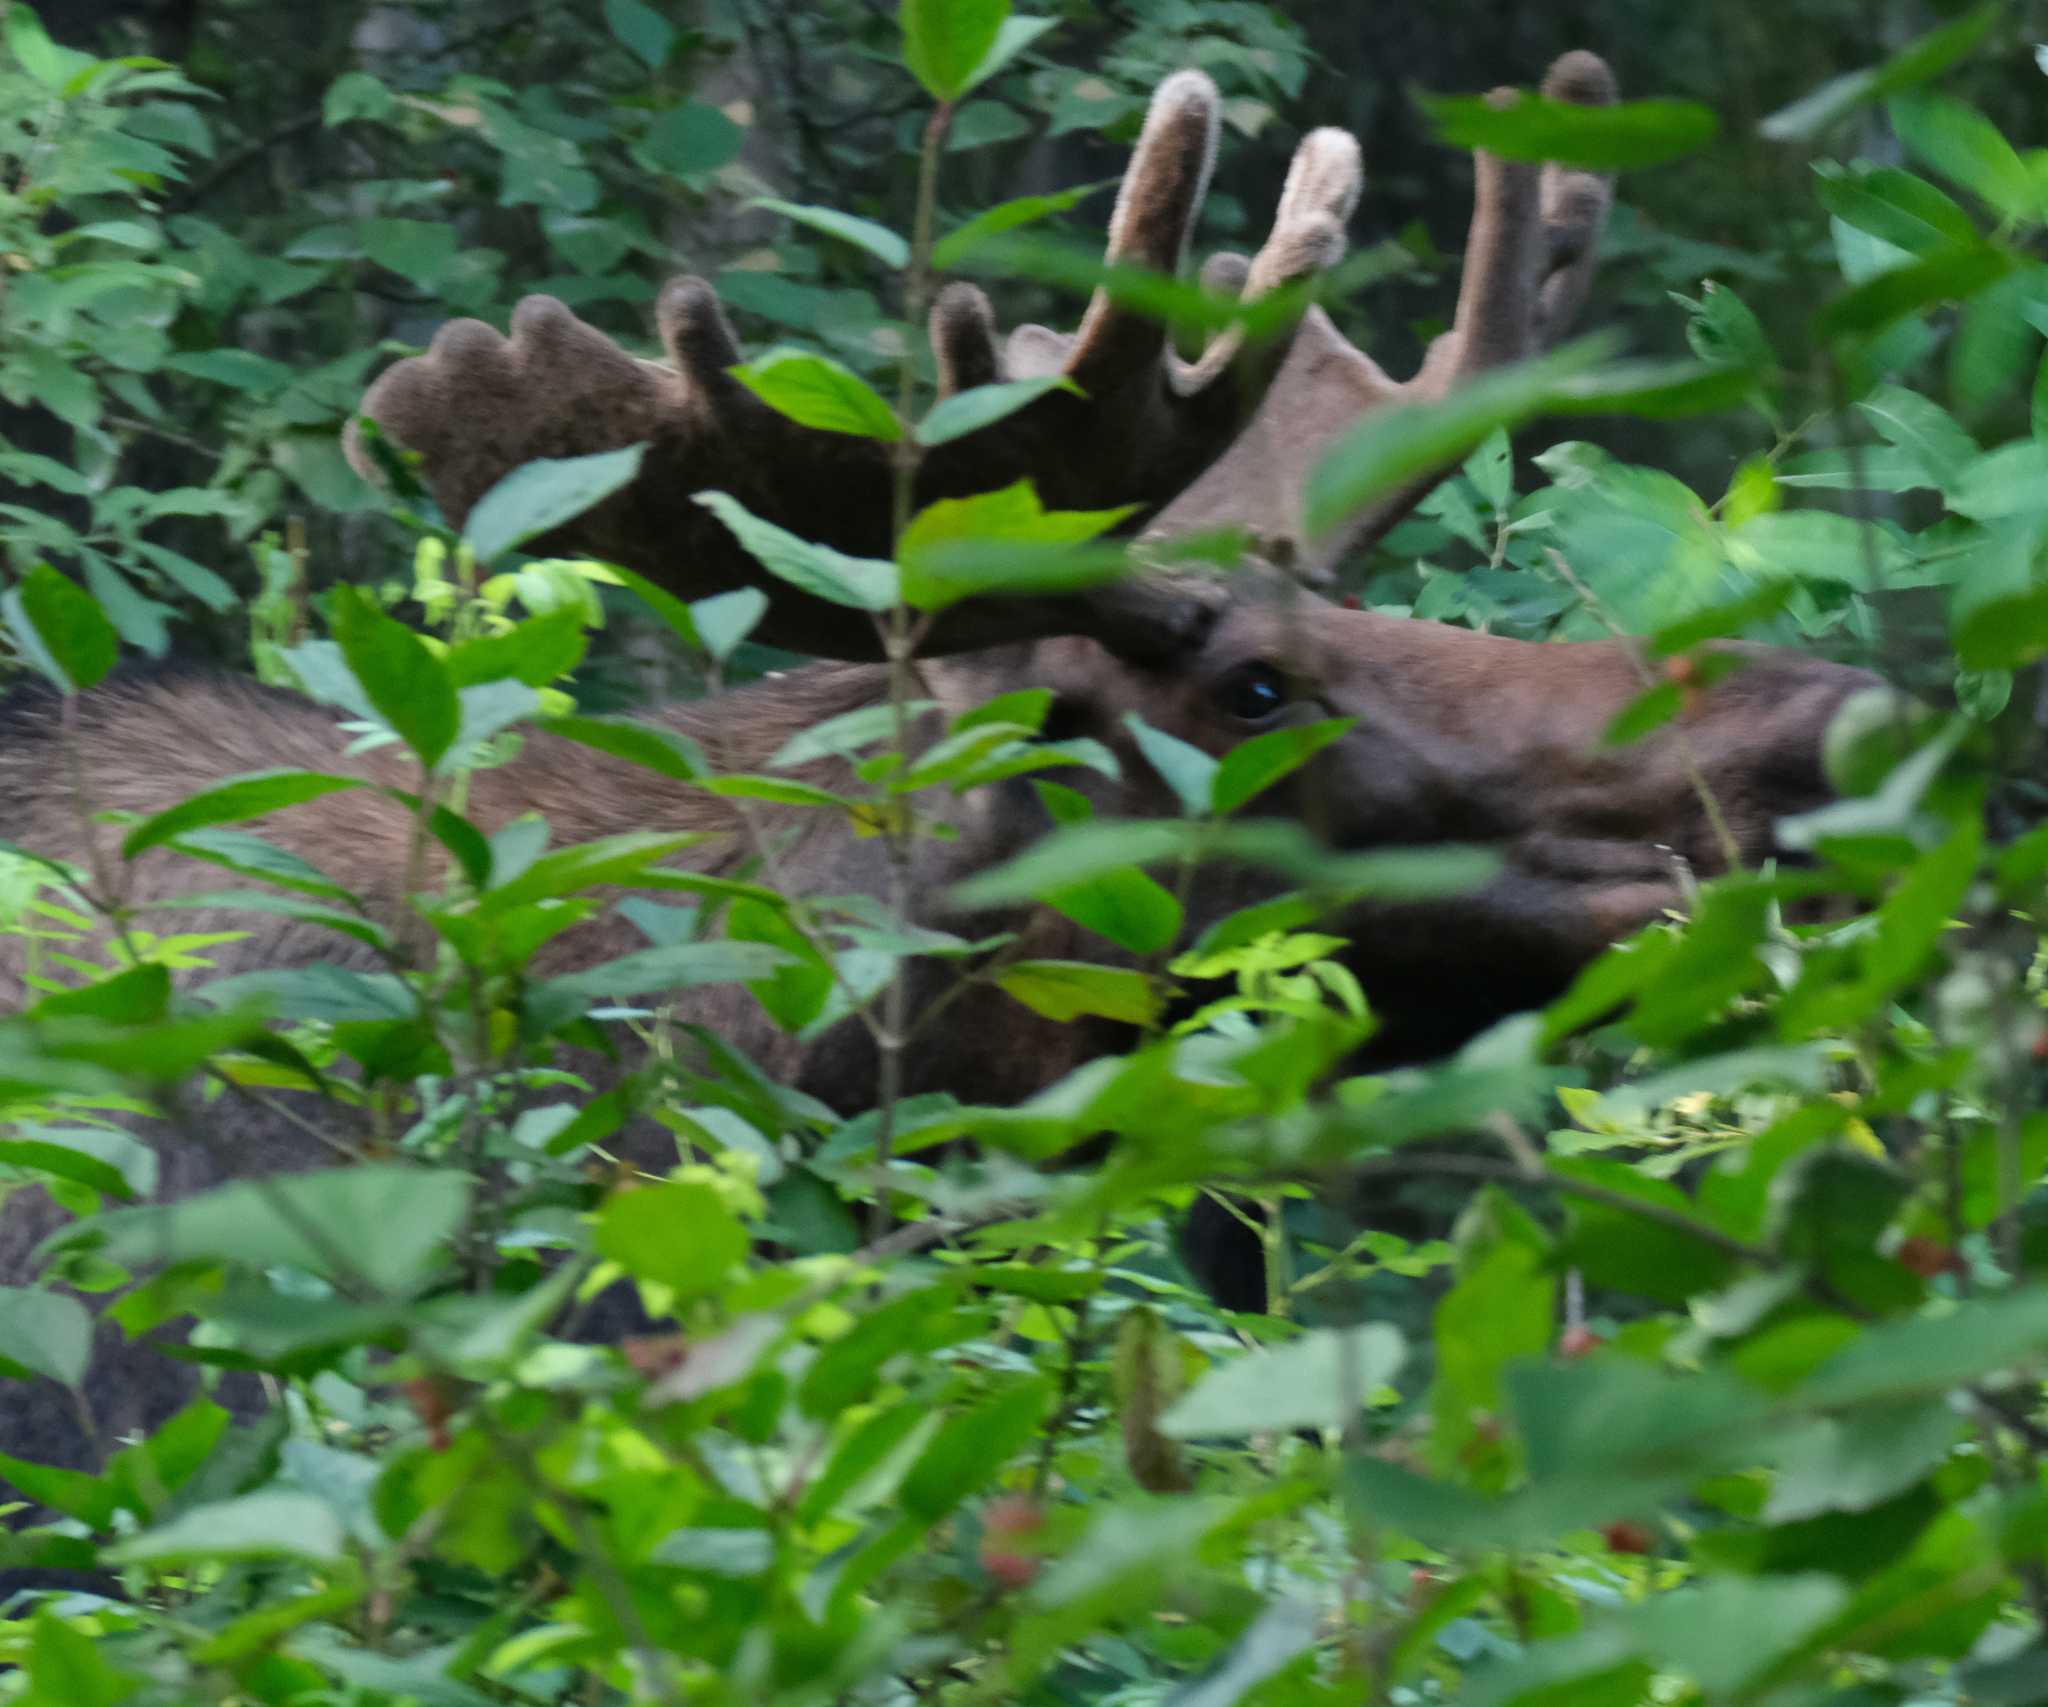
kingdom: Animalia
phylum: Chordata
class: Mammalia
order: Artiodactyla
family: Cervidae
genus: Alces
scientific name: Alces alces
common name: Moose
